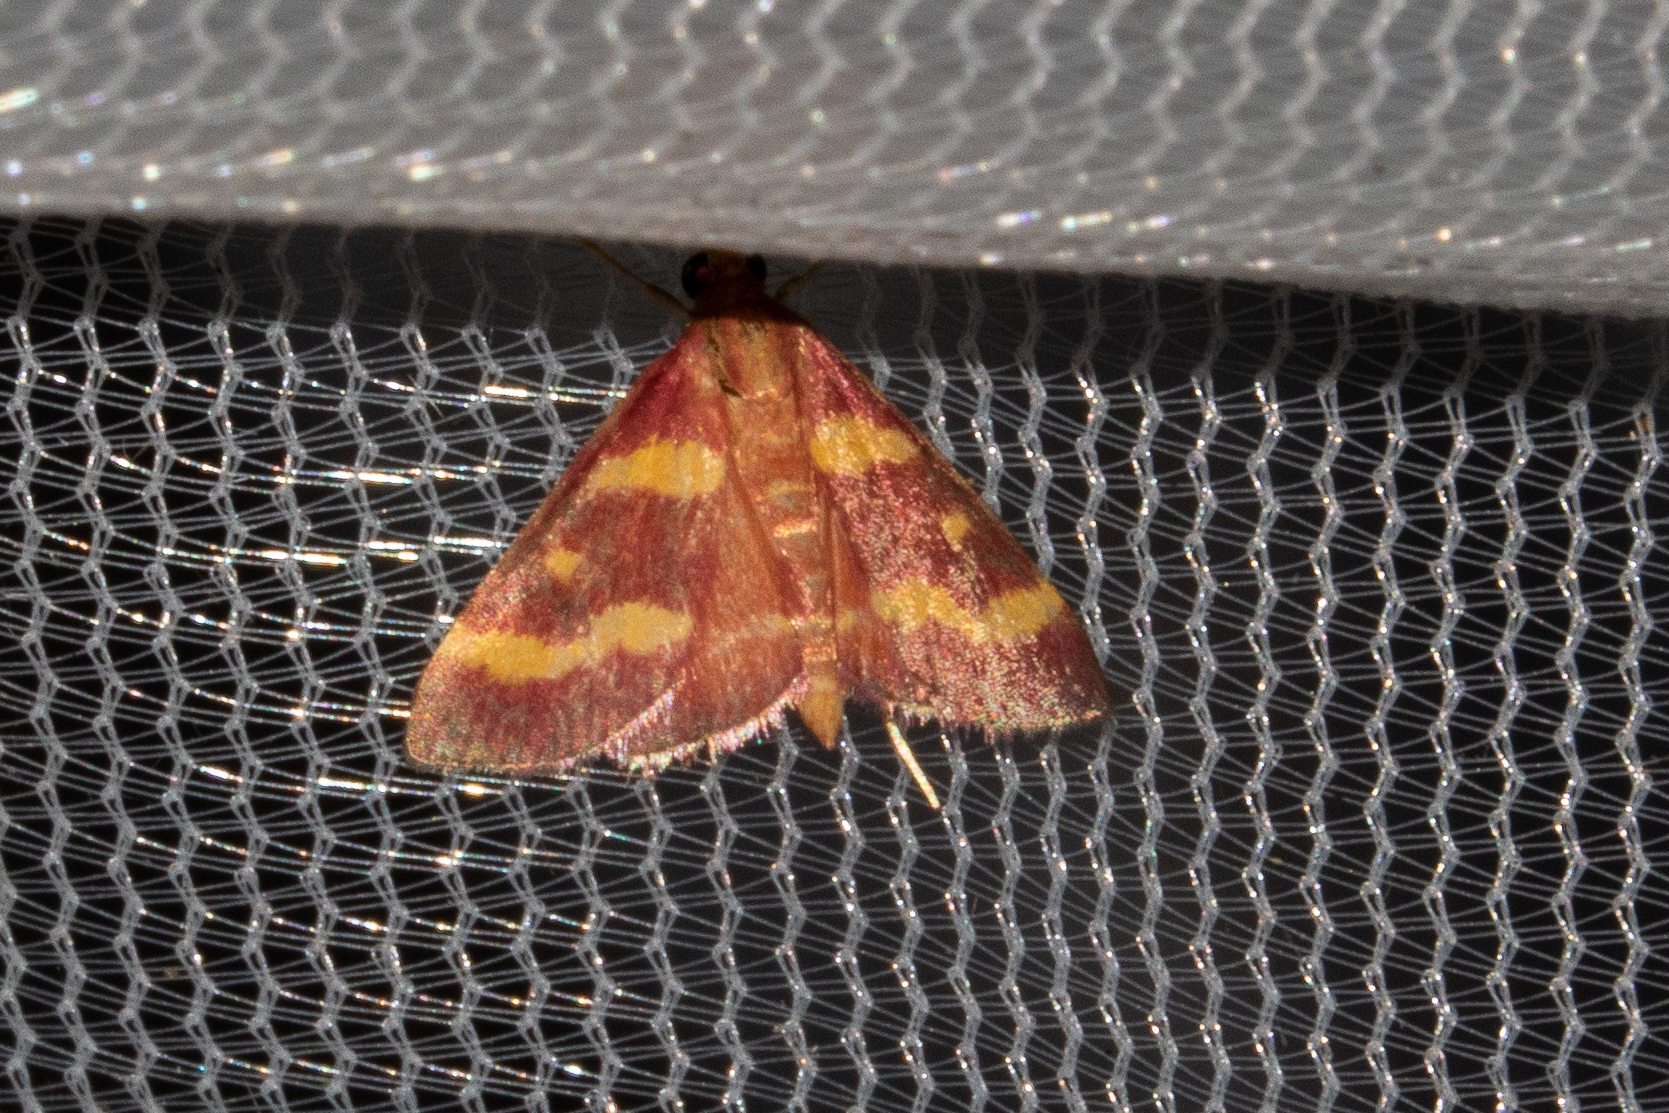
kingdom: Animalia
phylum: Arthropoda
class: Insecta
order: Lepidoptera
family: Crambidae
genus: Pyrausta
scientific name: Pyrausta tyralis
